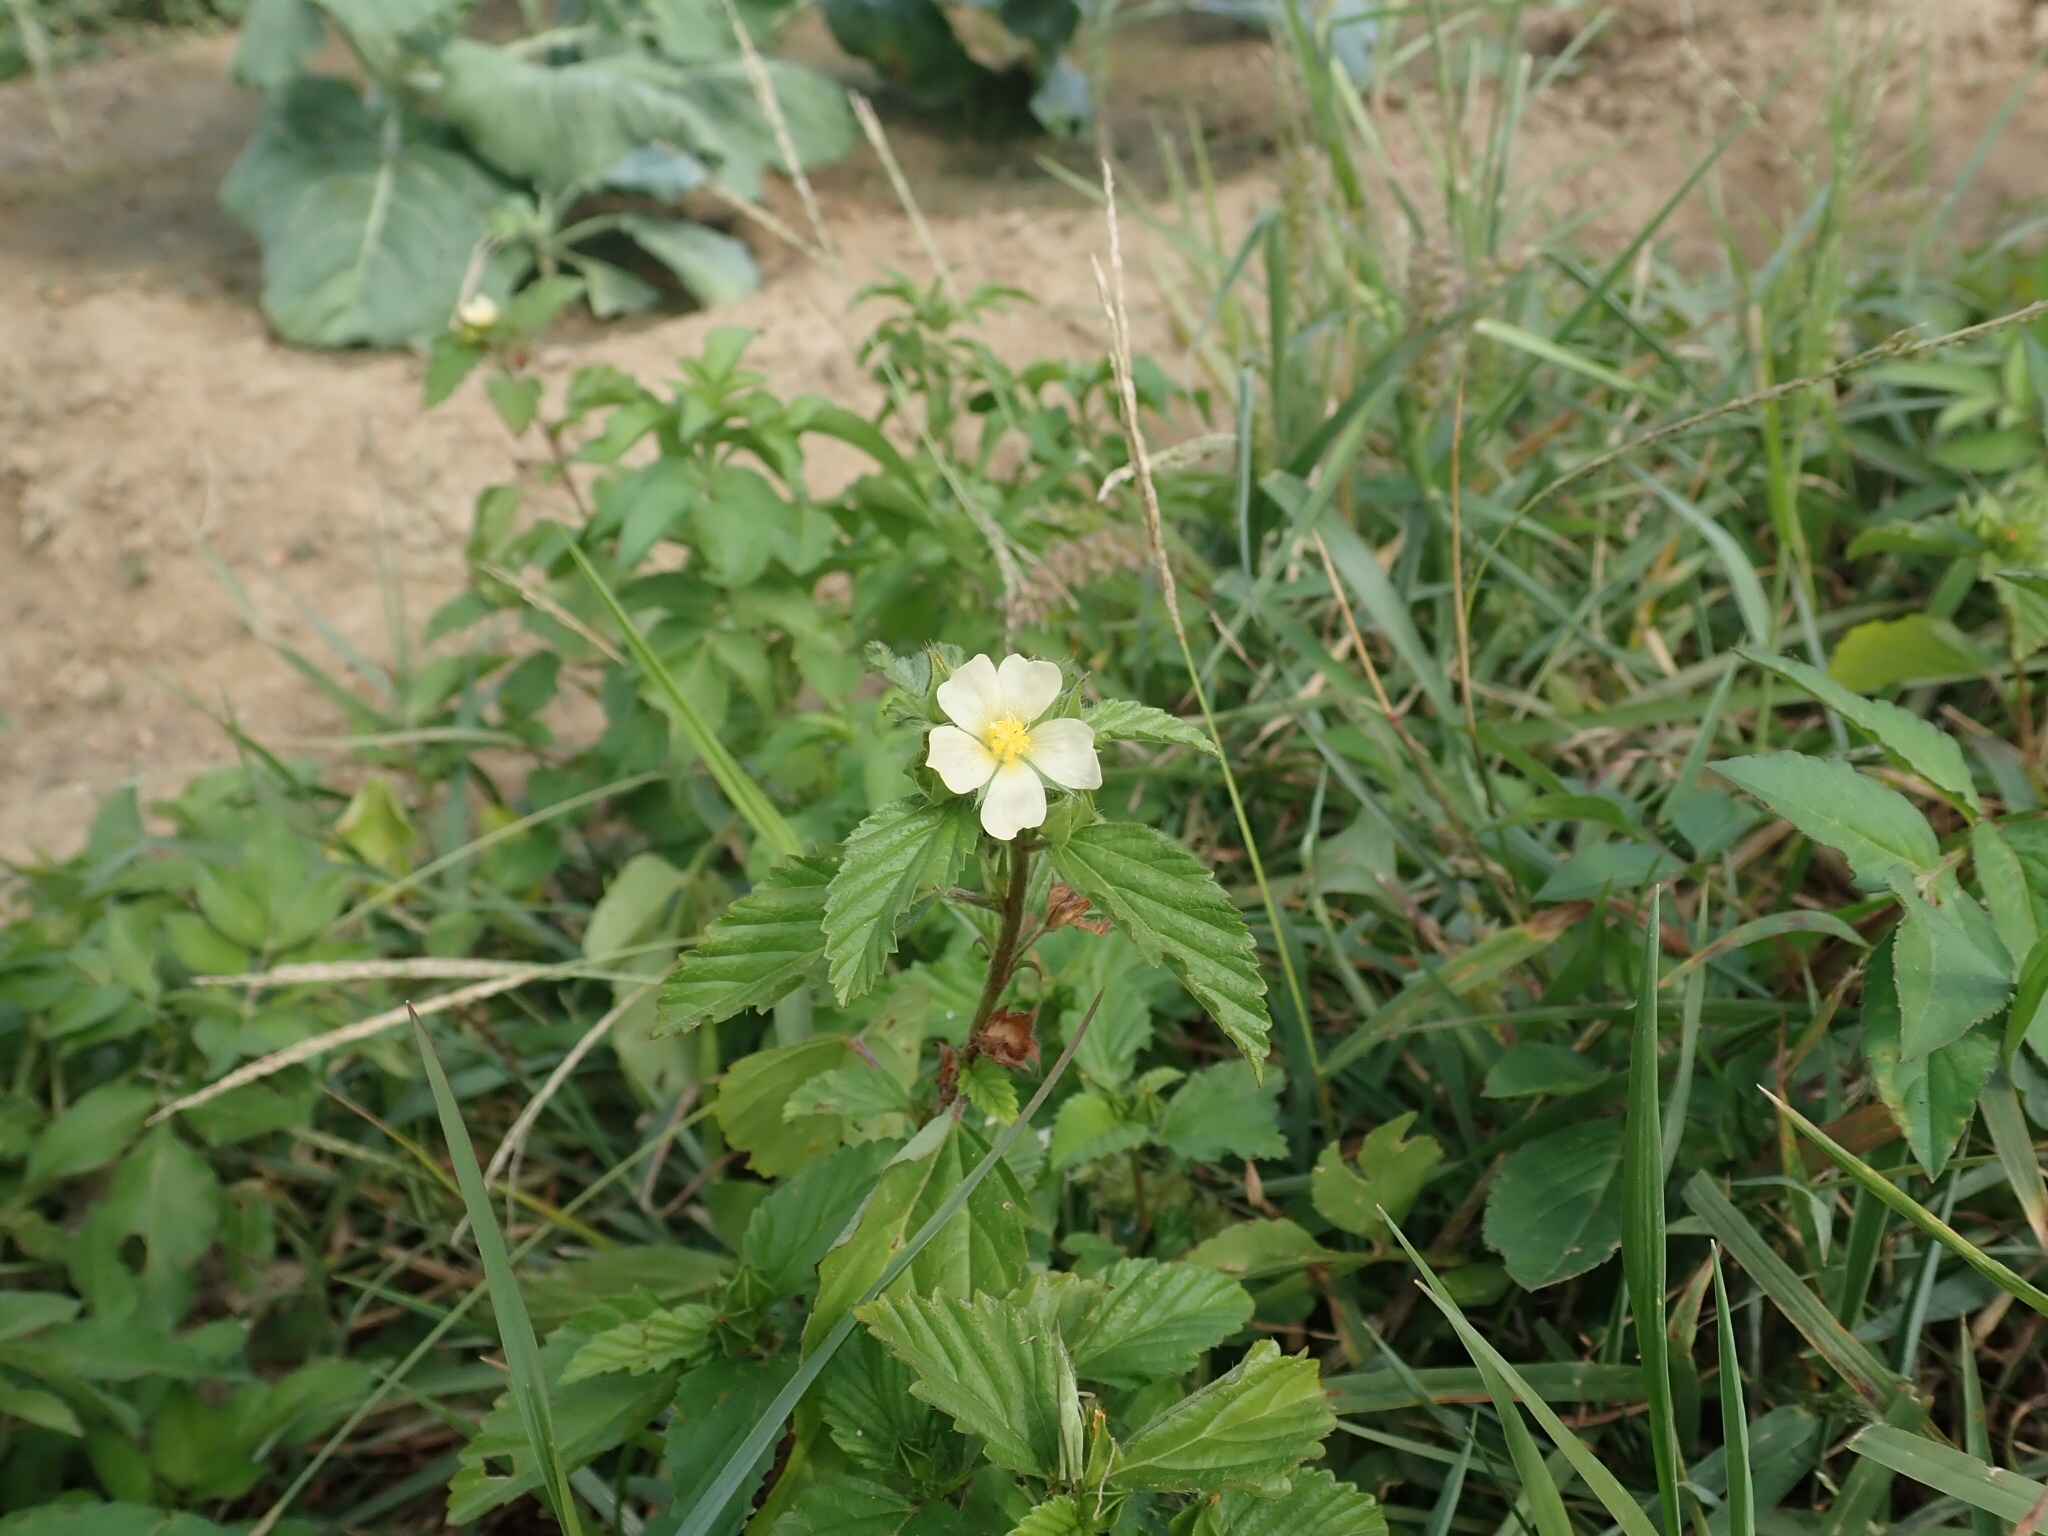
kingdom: Plantae
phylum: Tracheophyta
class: Magnoliopsida
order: Malvales
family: Malvaceae
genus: Malvastrum
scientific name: Malvastrum coromandelianum
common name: Threelobe false mallow
